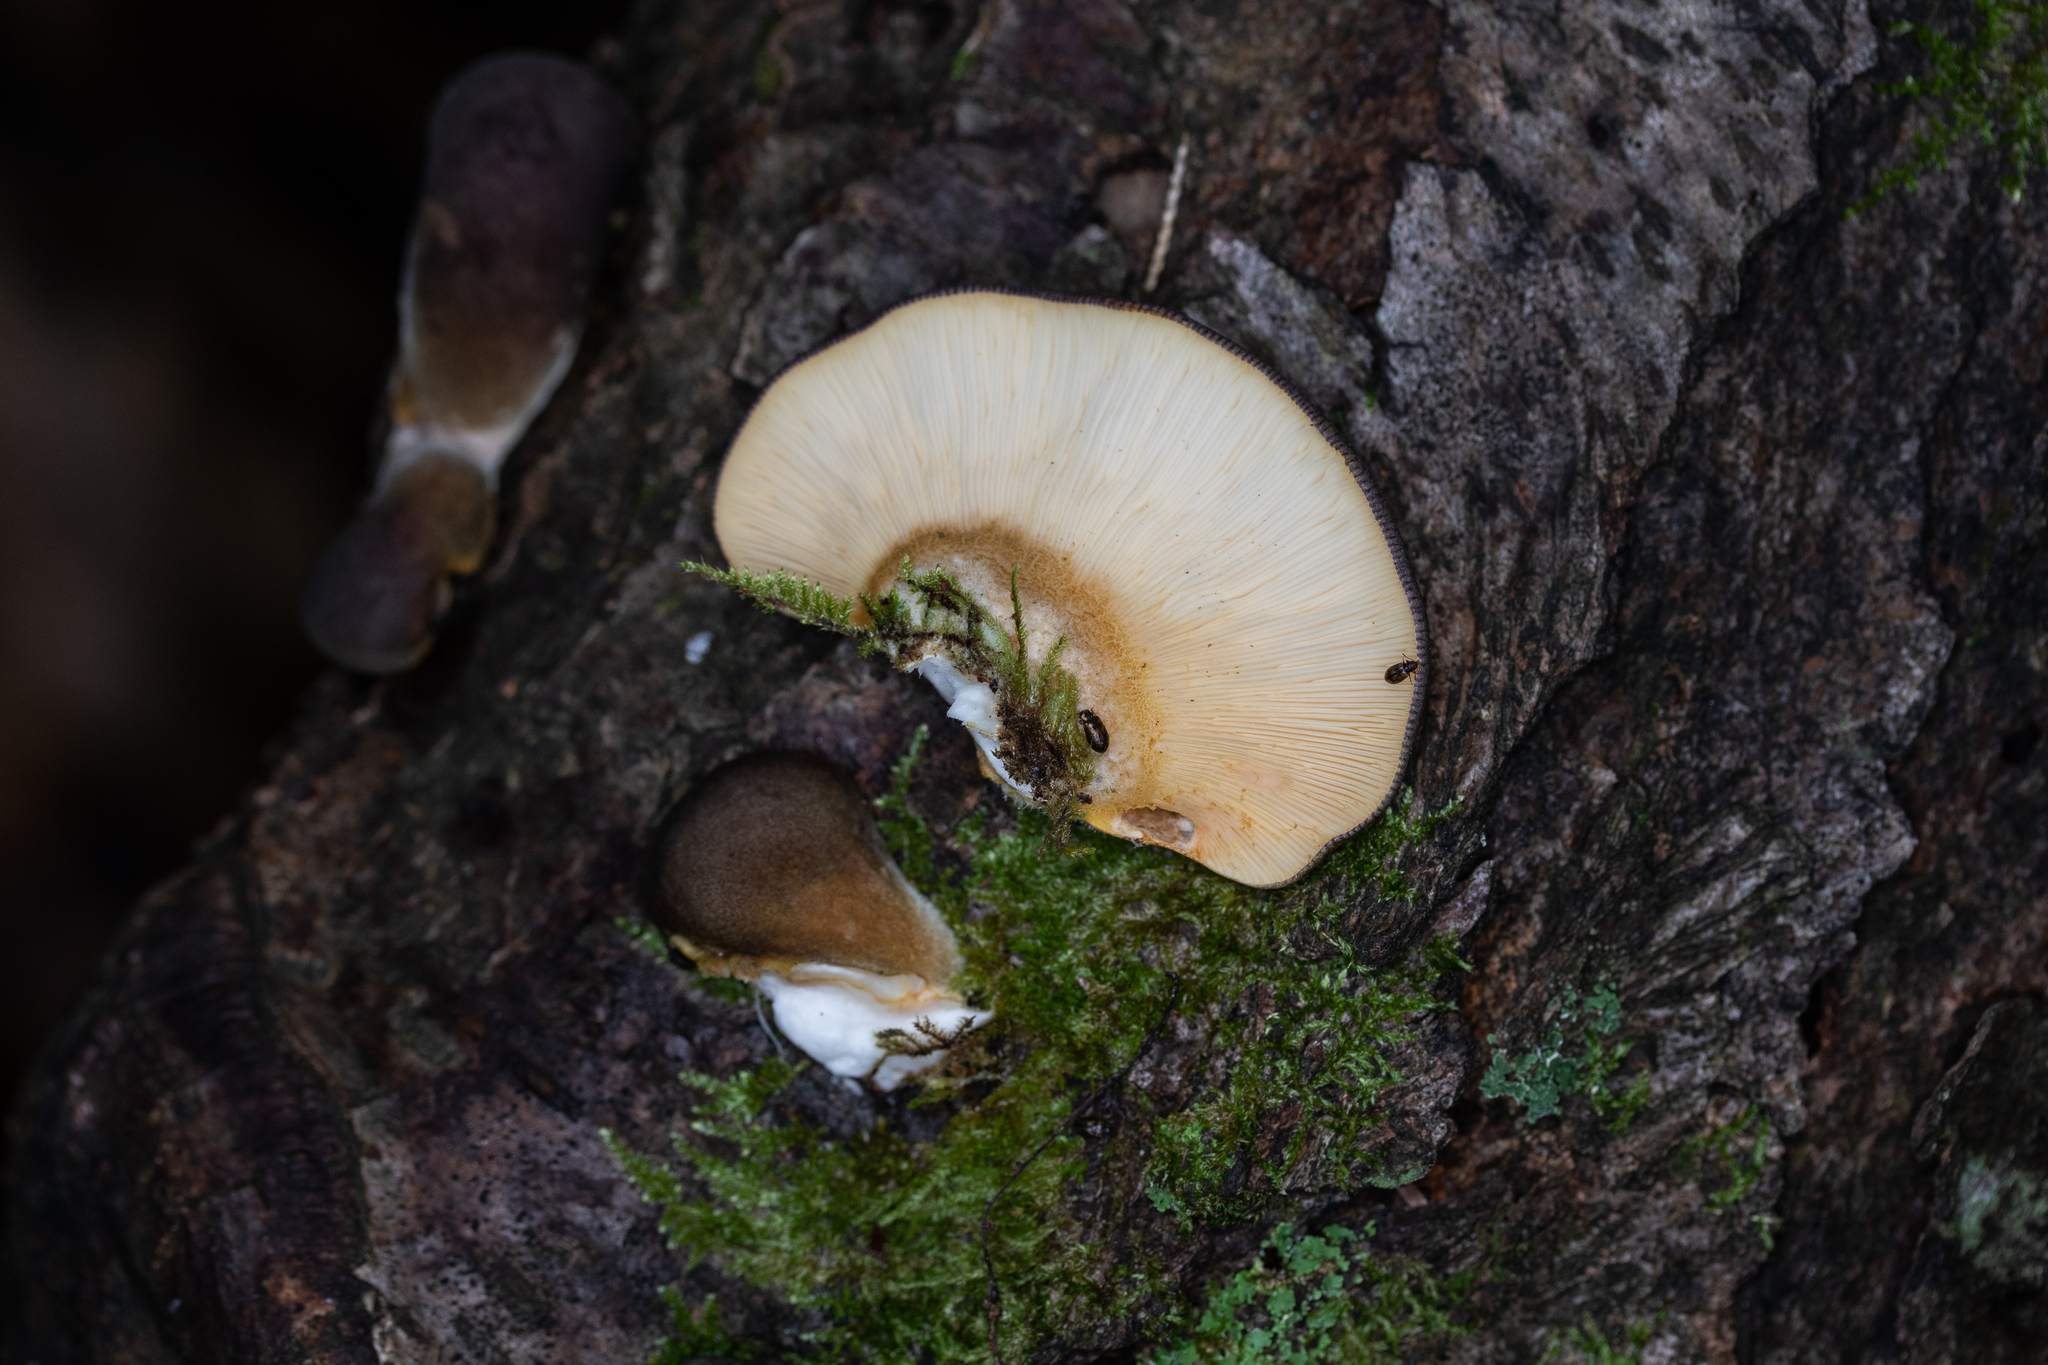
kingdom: Fungi
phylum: Basidiomycota
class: Agaricomycetes
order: Agaricales
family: Sarcomyxaceae
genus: Sarcomyxa
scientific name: Sarcomyxa serotina
